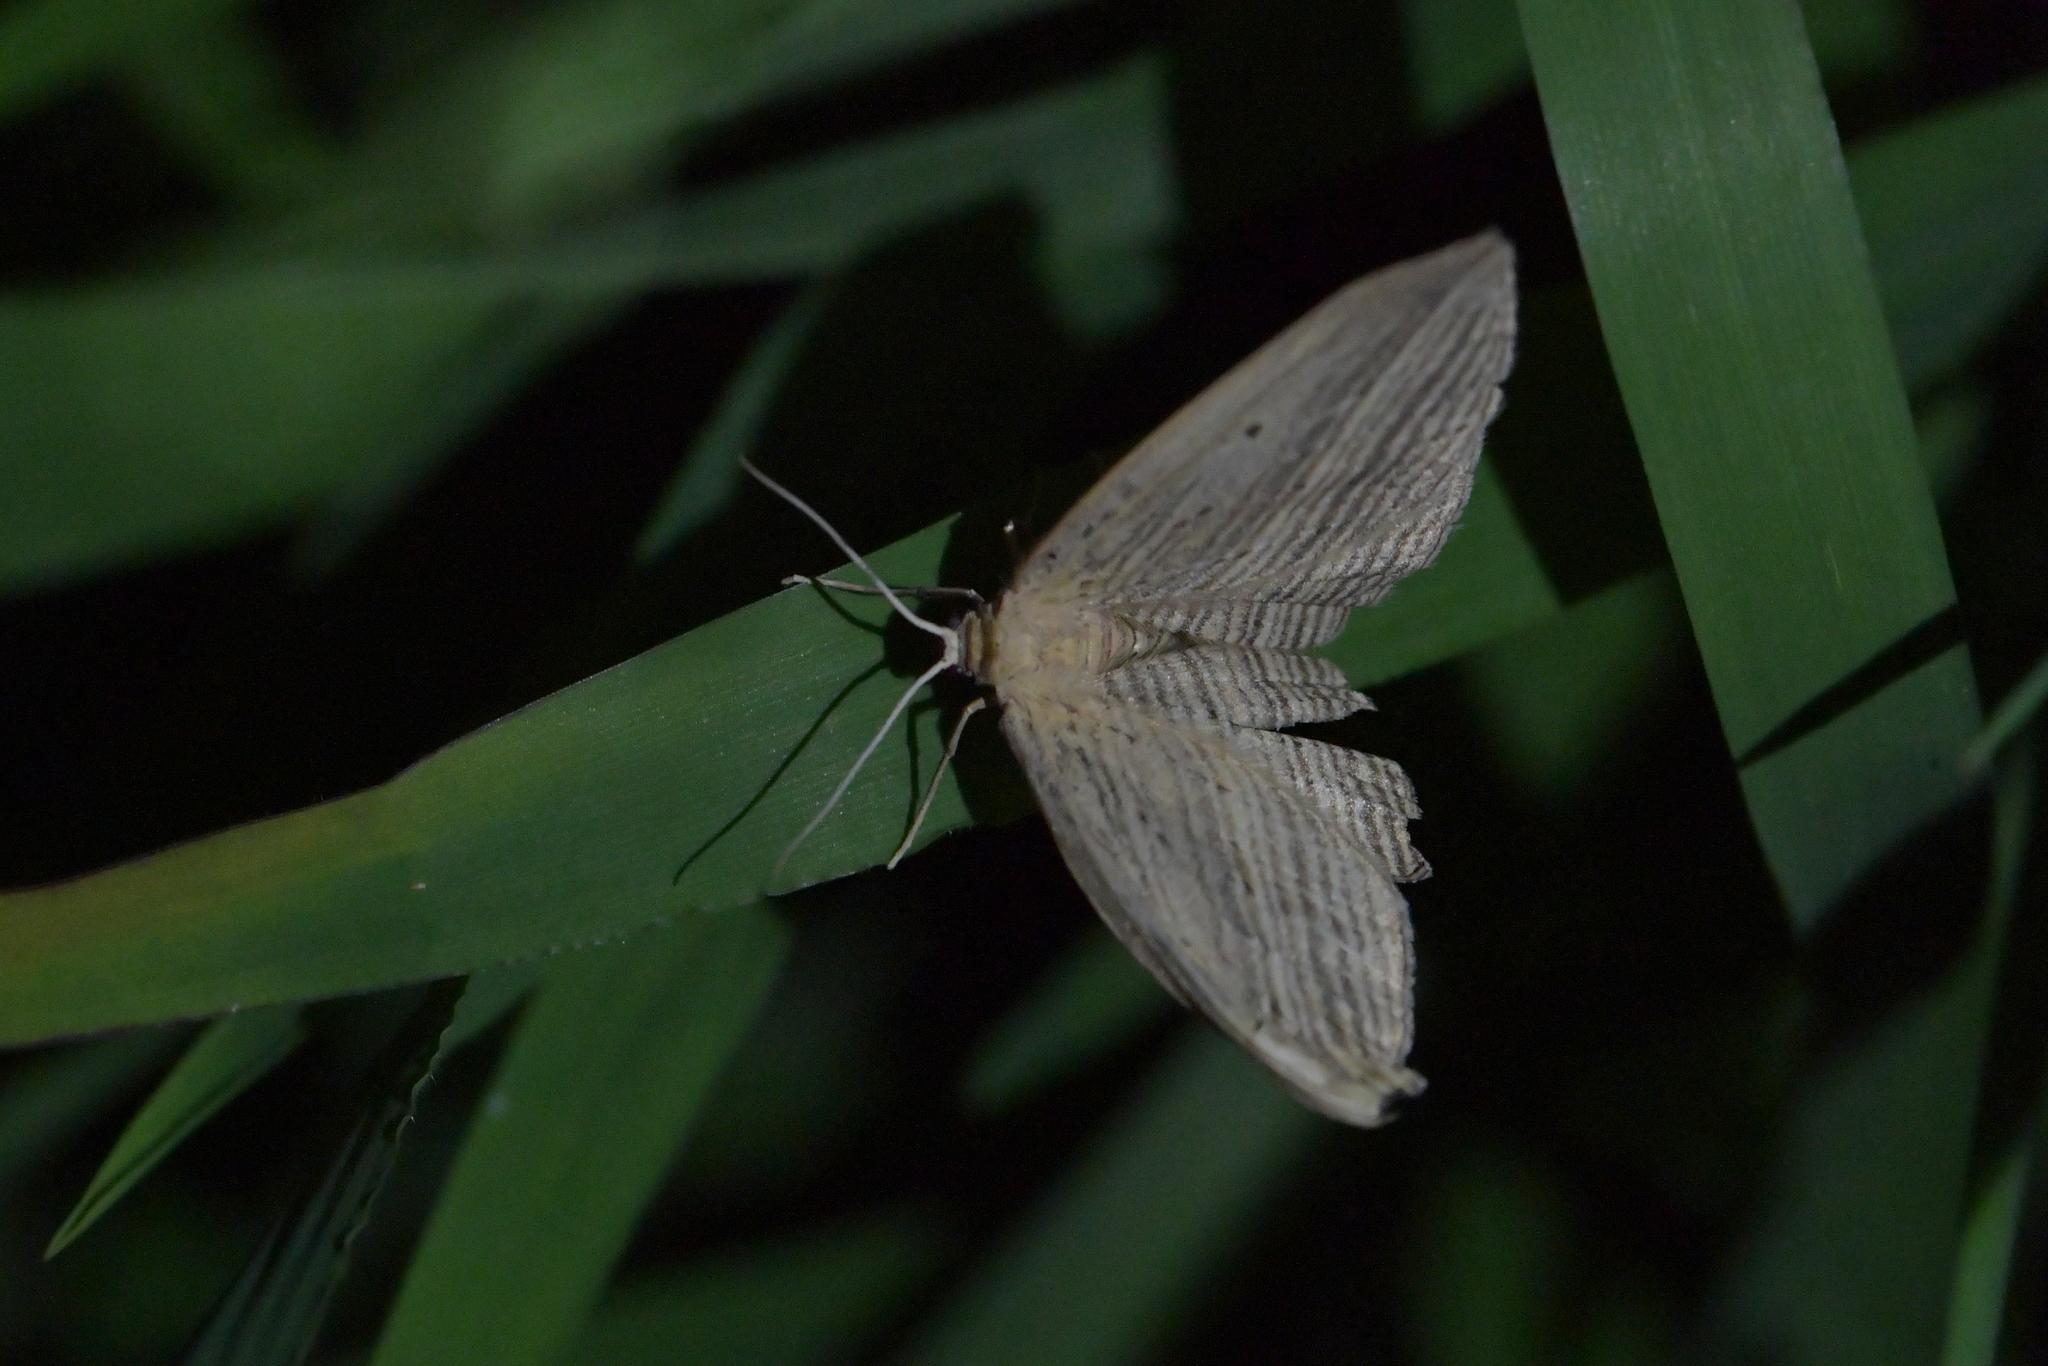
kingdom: Animalia
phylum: Arthropoda
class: Insecta
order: Lepidoptera
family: Geometridae
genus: Epiphryne
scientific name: Epiphryne verriculata
